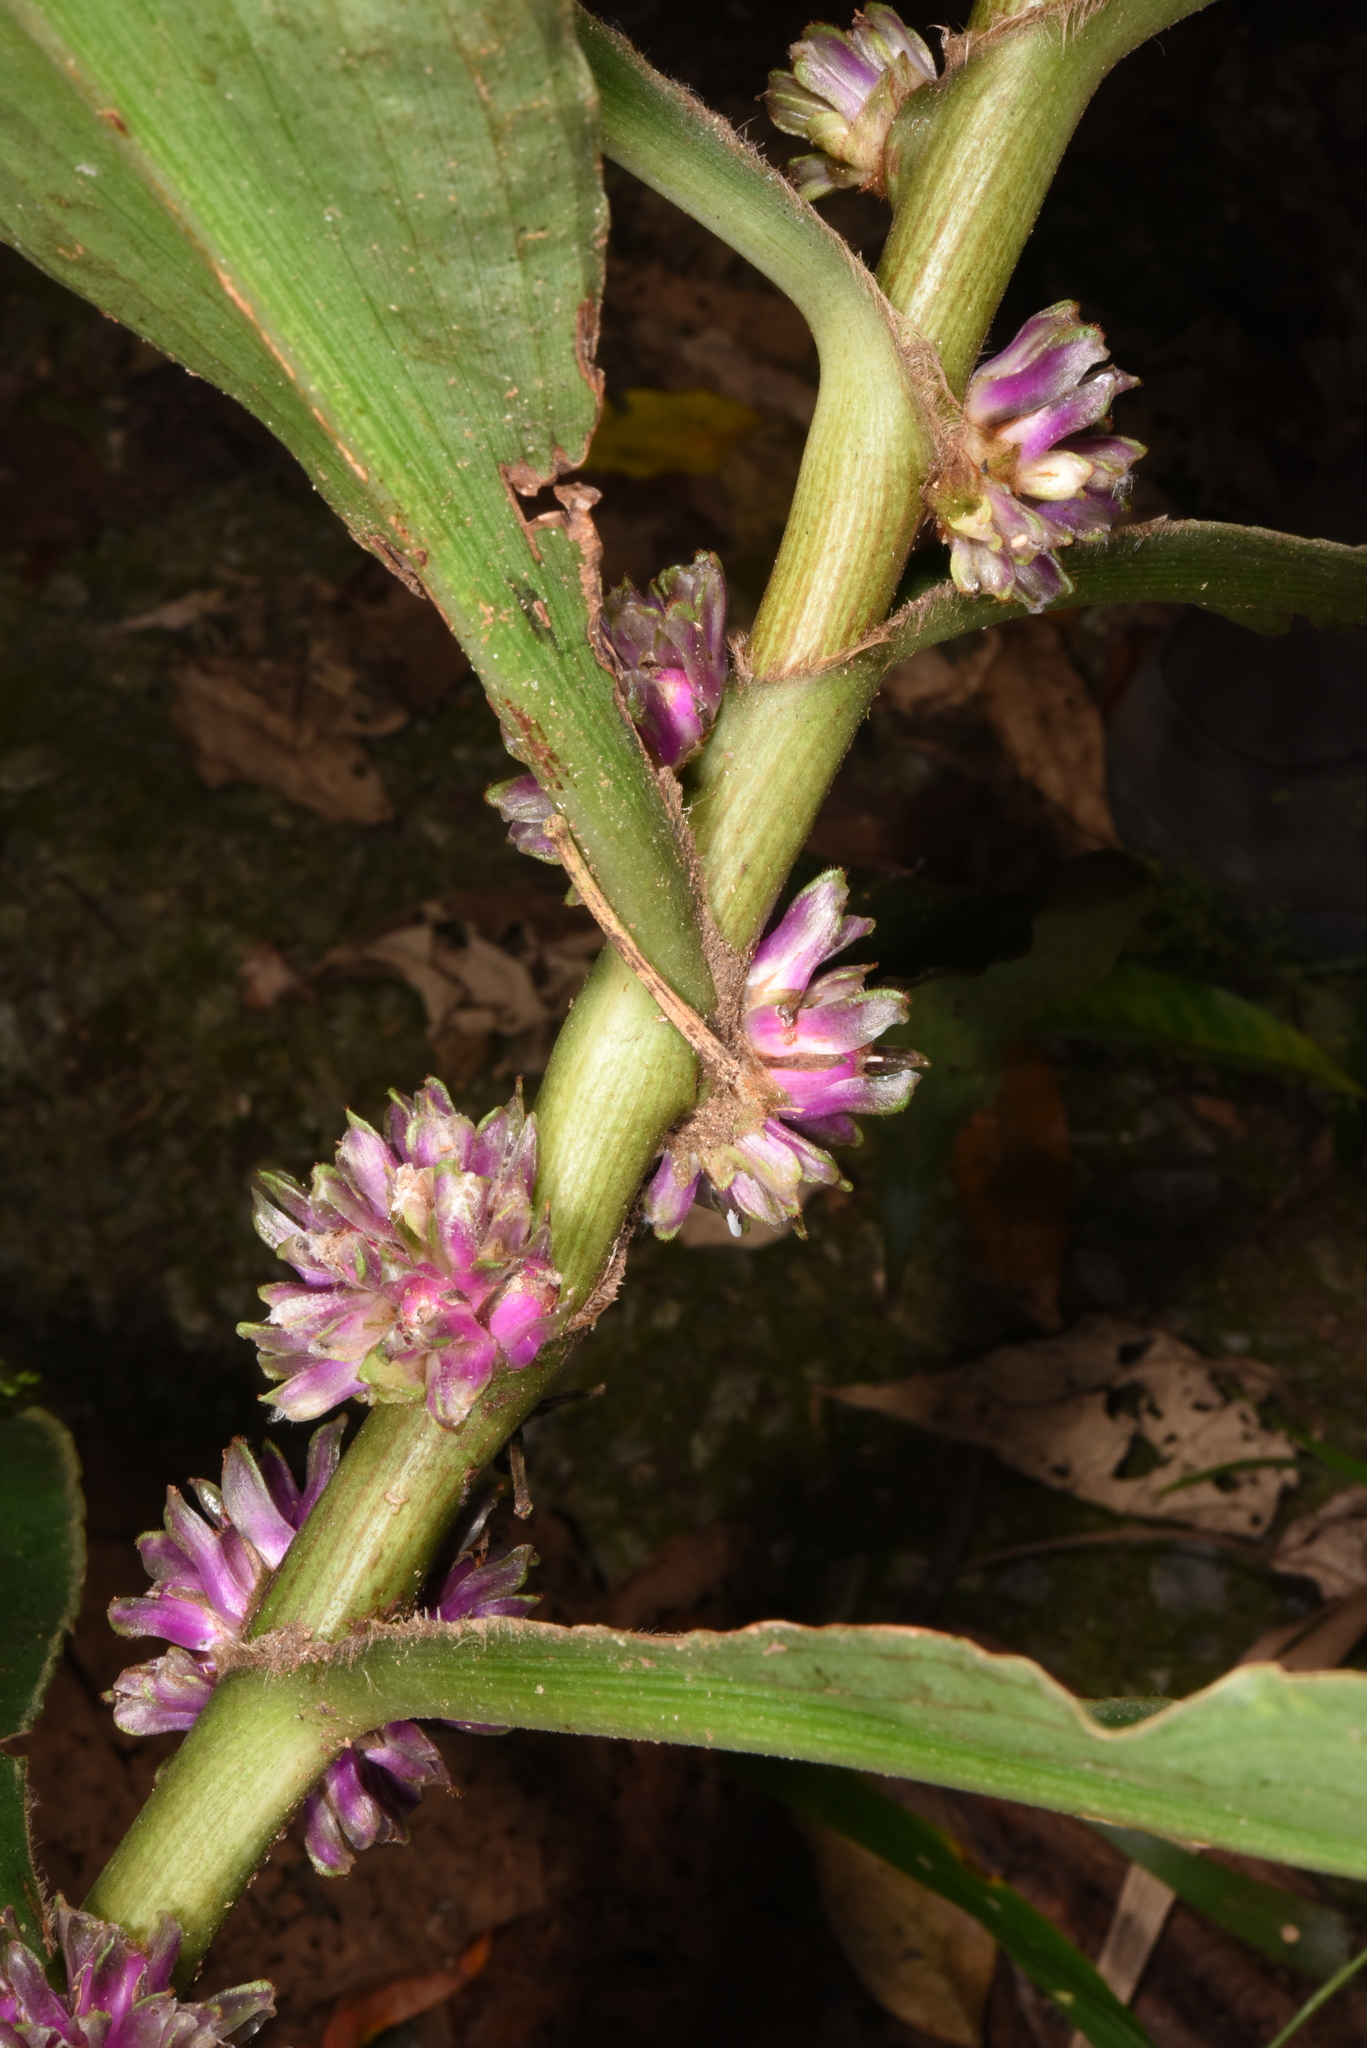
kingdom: Plantae
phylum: Tracheophyta
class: Liliopsida
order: Commelinales
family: Commelinaceae
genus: Amischotolype
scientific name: Amischotolype glabrata
